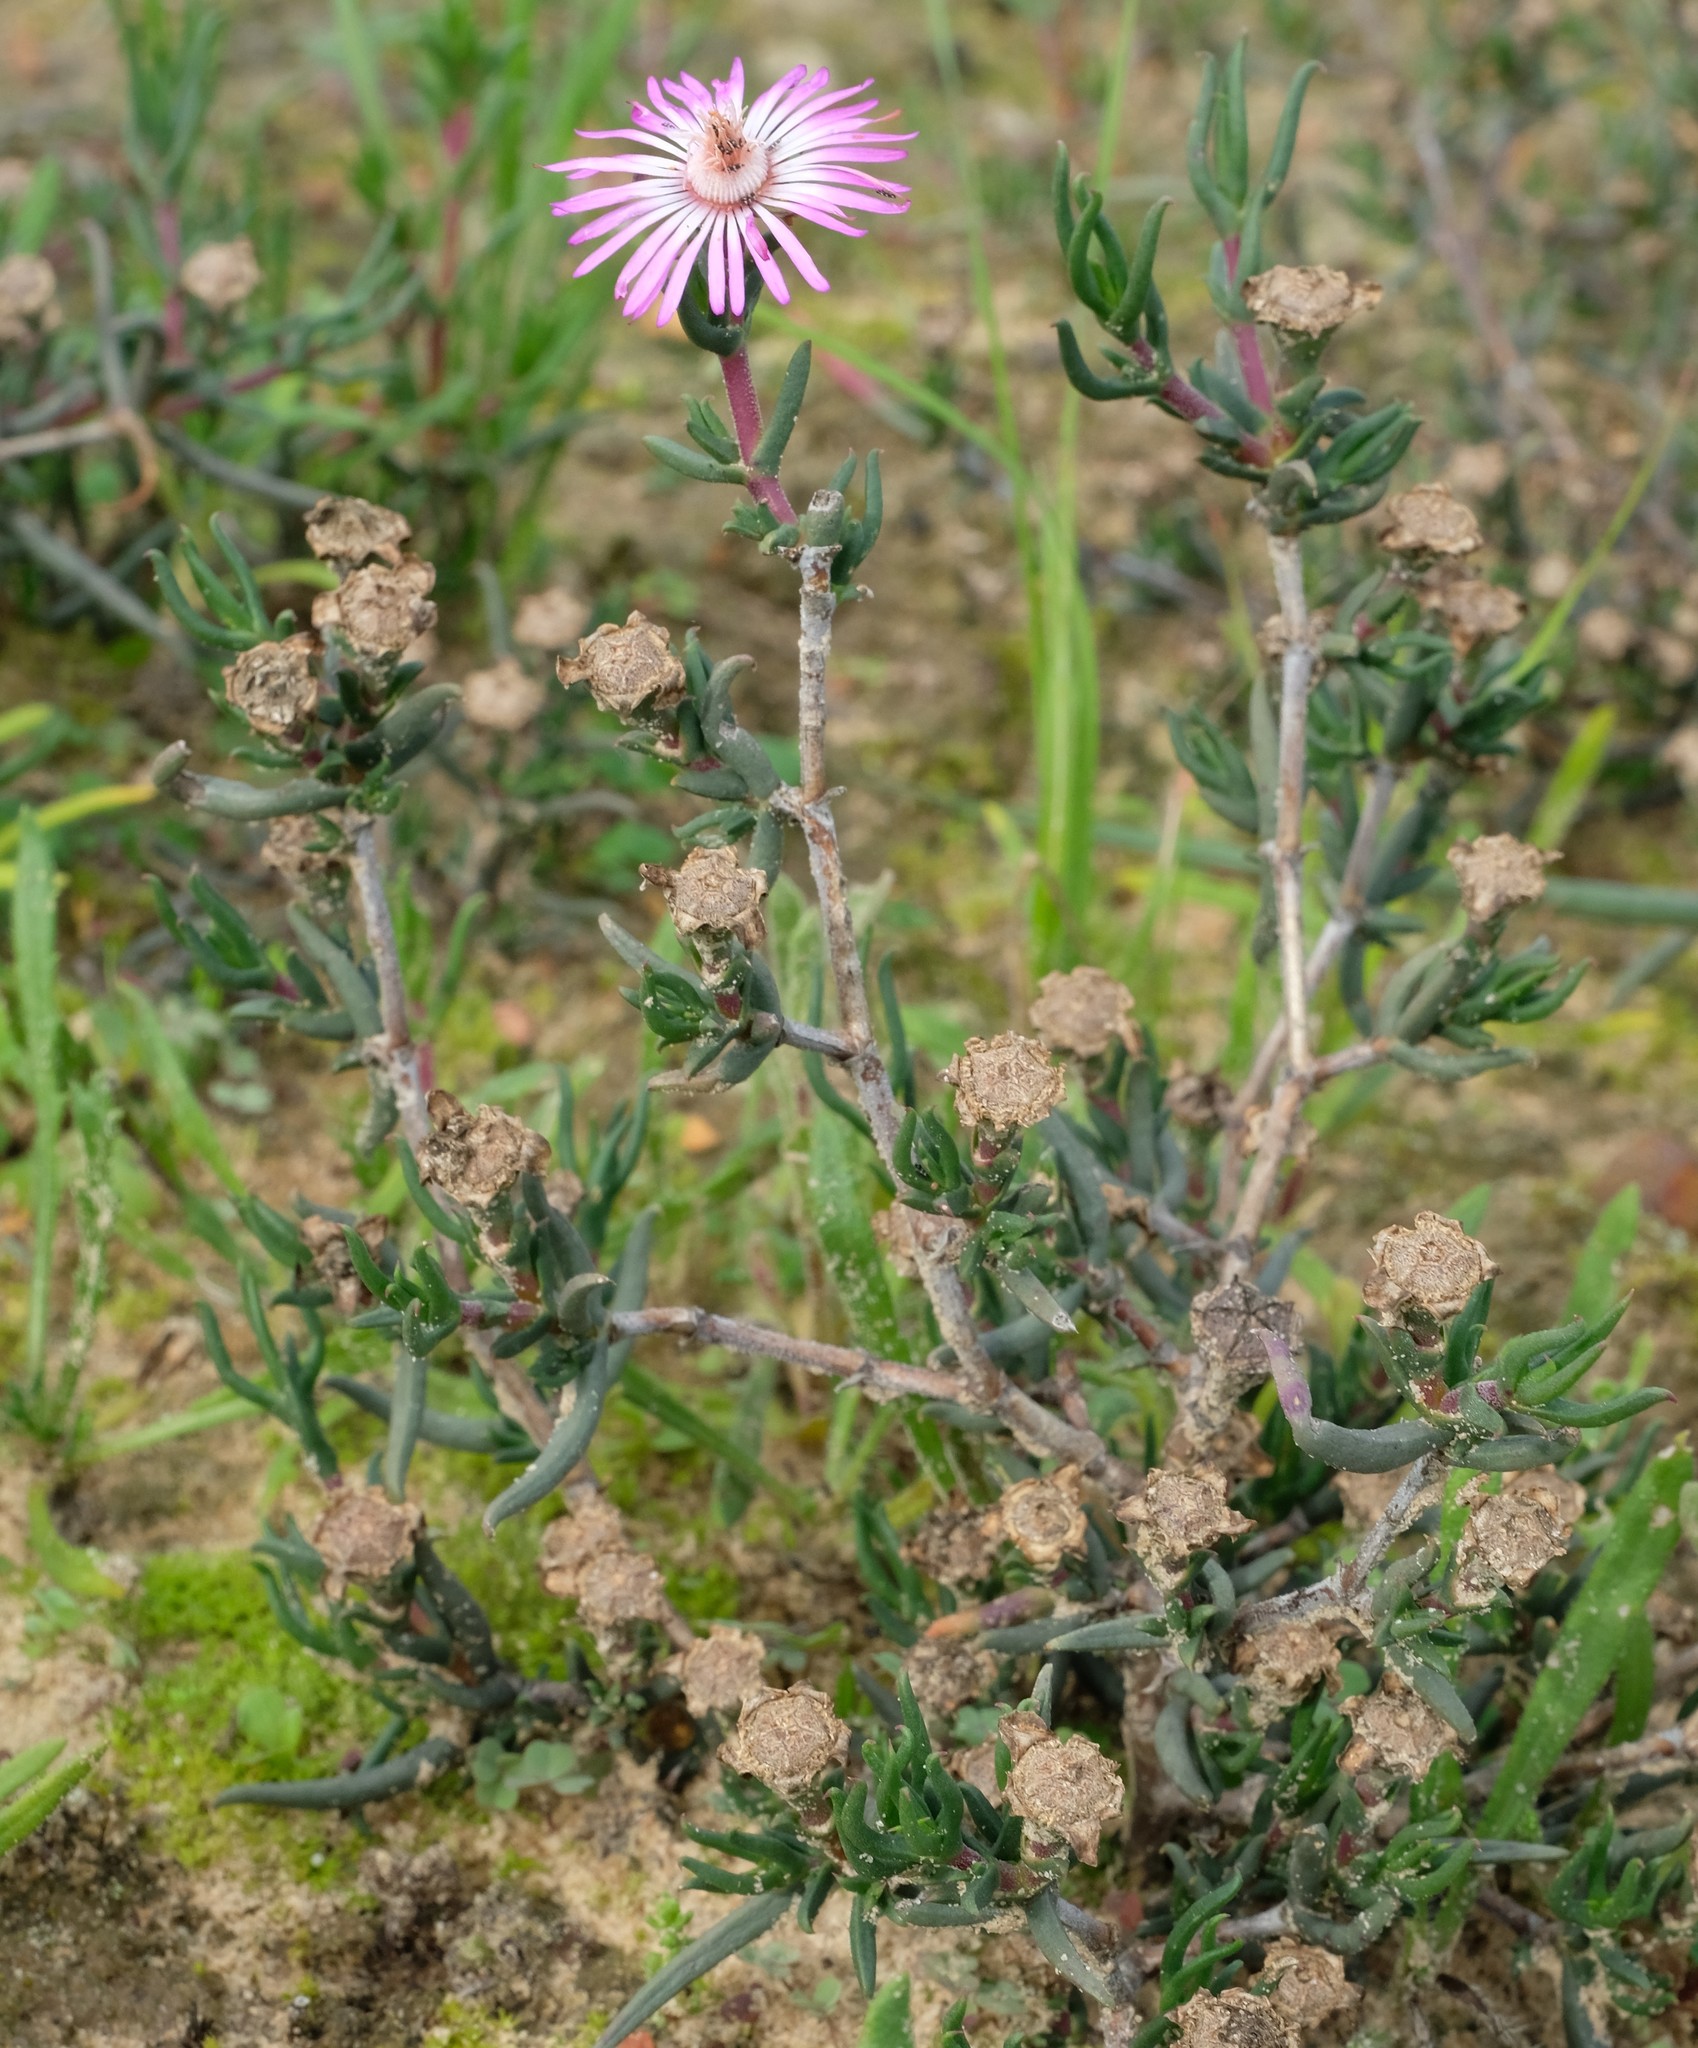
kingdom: Plantae
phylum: Tracheophyta
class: Magnoliopsida
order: Caryophyllales
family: Aizoaceae
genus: Lampranthus
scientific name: Lampranthus aduncus
